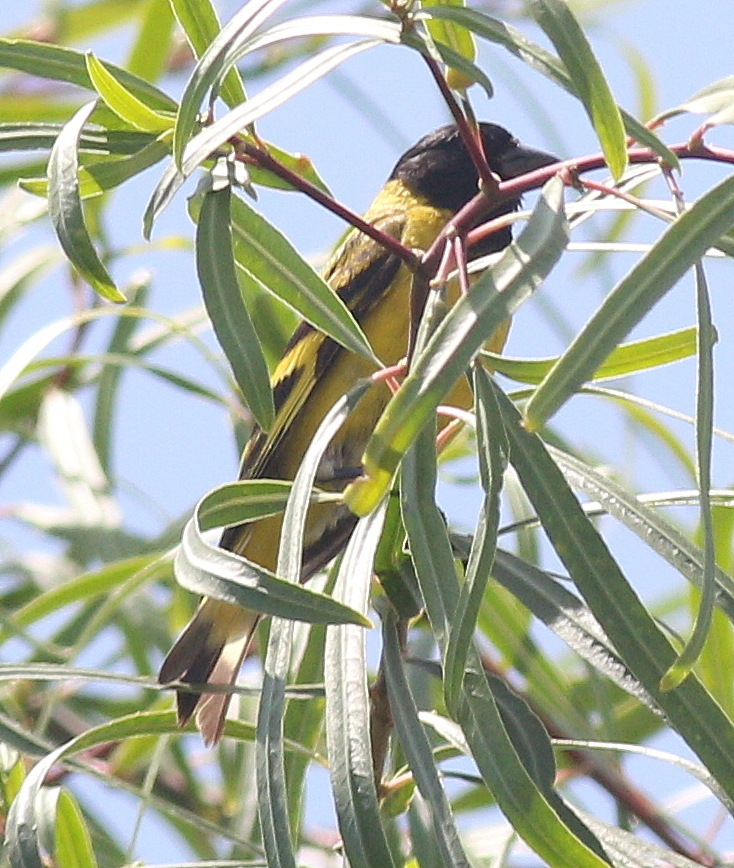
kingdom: Animalia
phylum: Chordata
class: Aves
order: Passeriformes
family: Fringillidae
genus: Spinus
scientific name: Spinus magellanicus
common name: Hooded siskin
